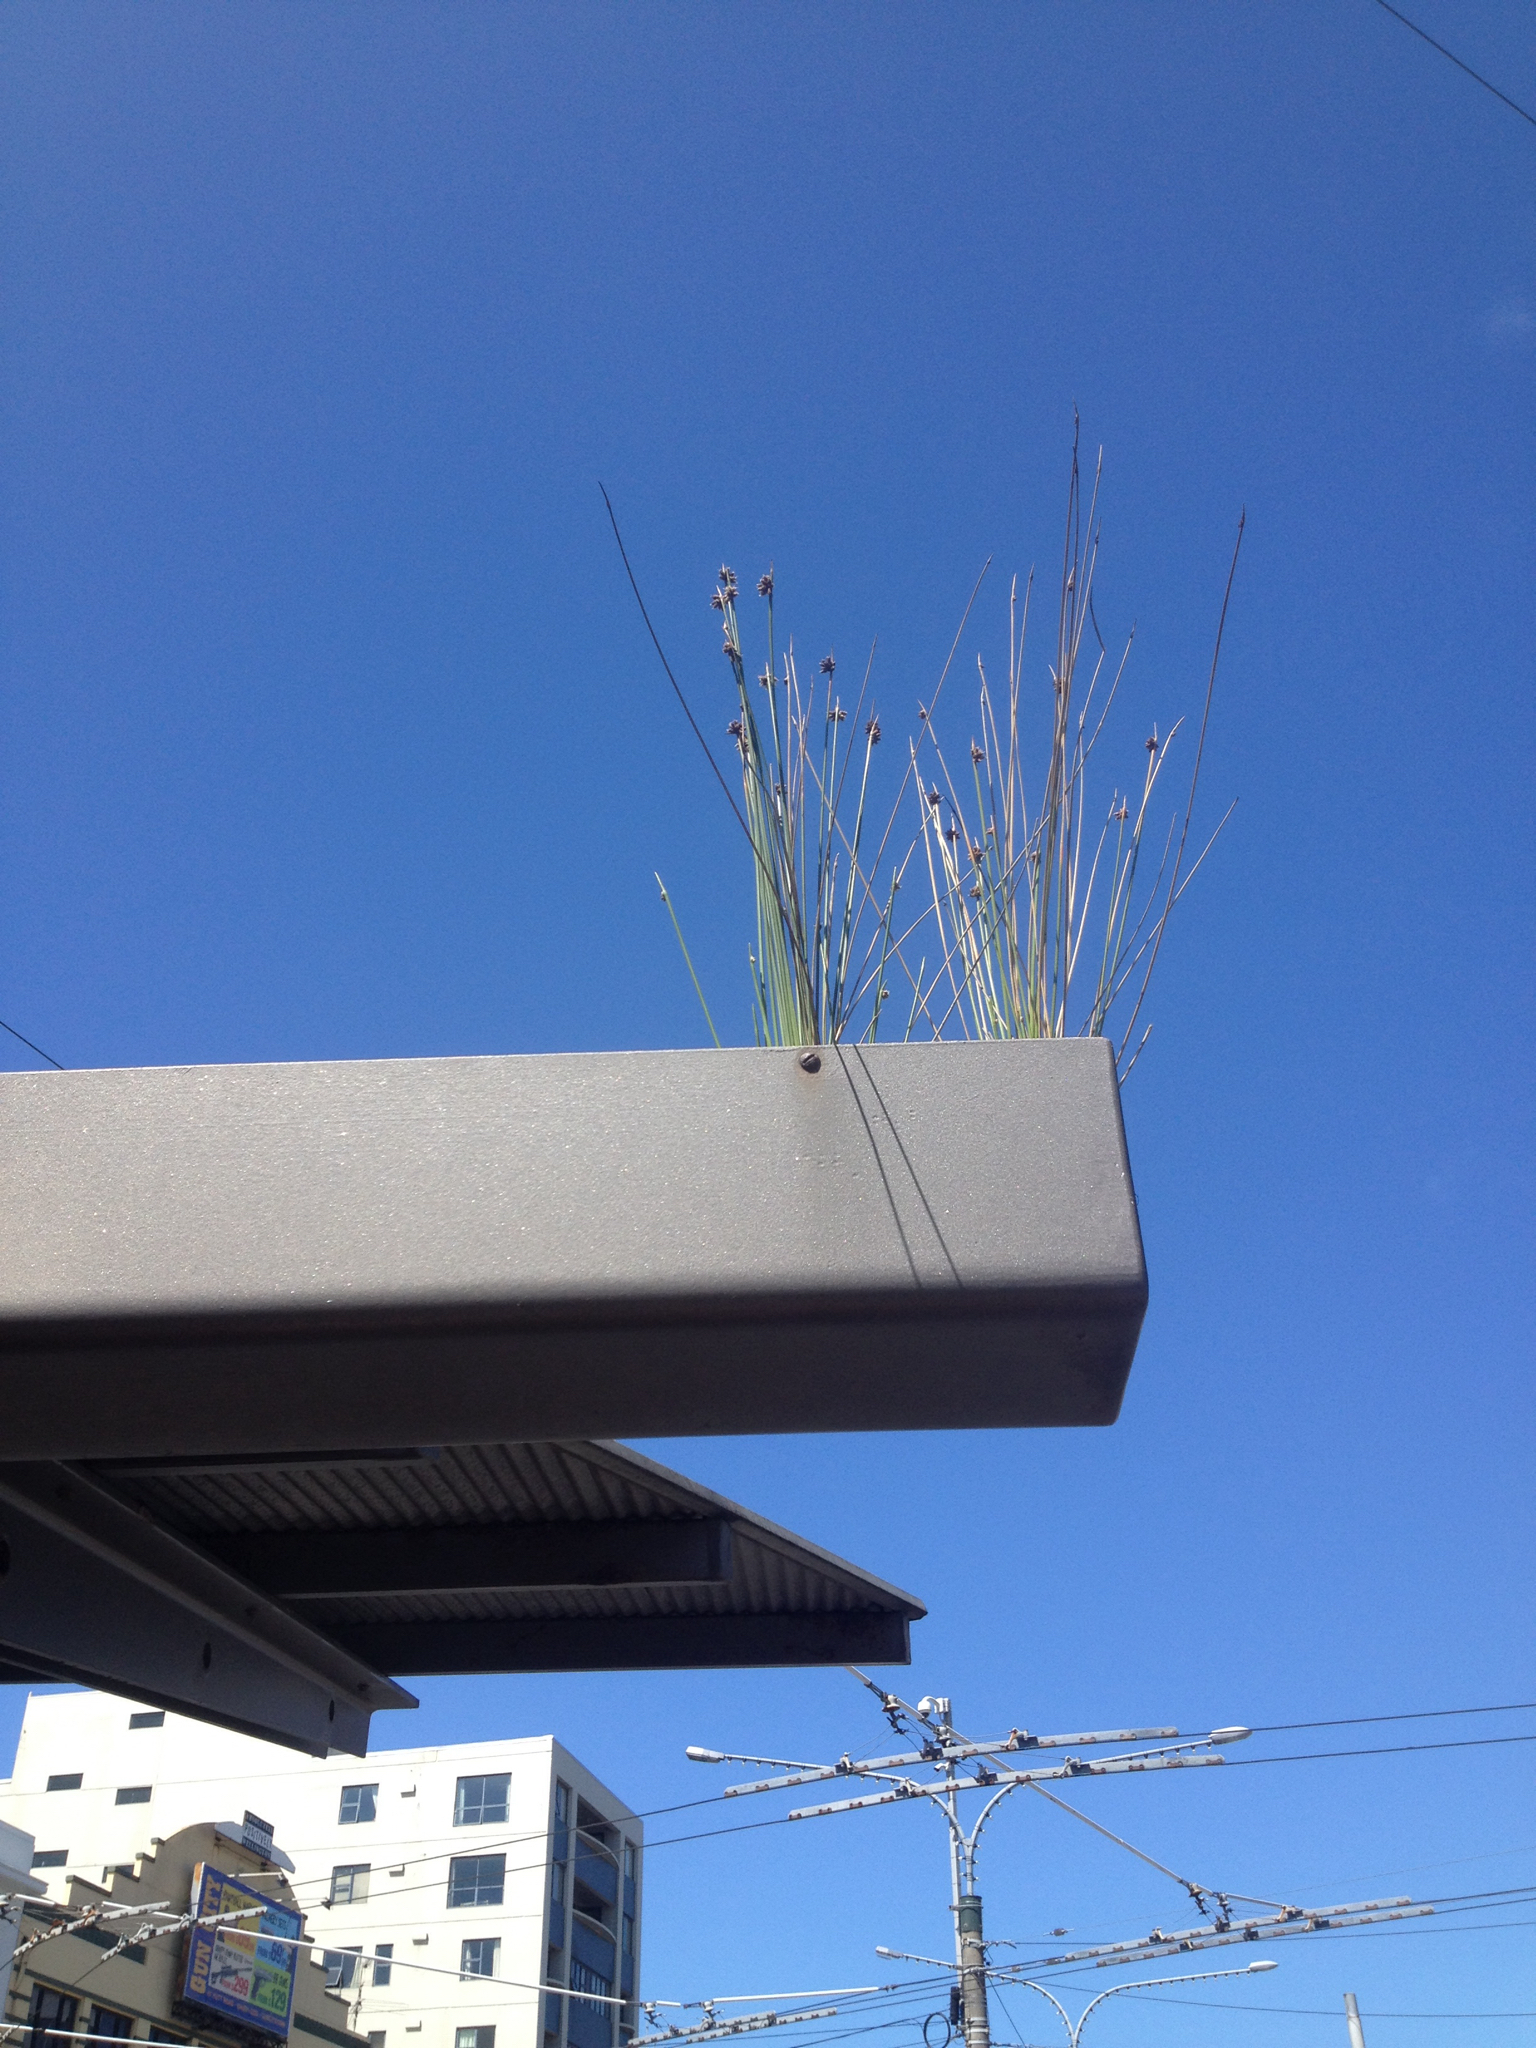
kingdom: Plantae
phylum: Tracheophyta
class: Liliopsida
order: Poales
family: Cyperaceae
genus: Ficinia
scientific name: Ficinia nodosa
